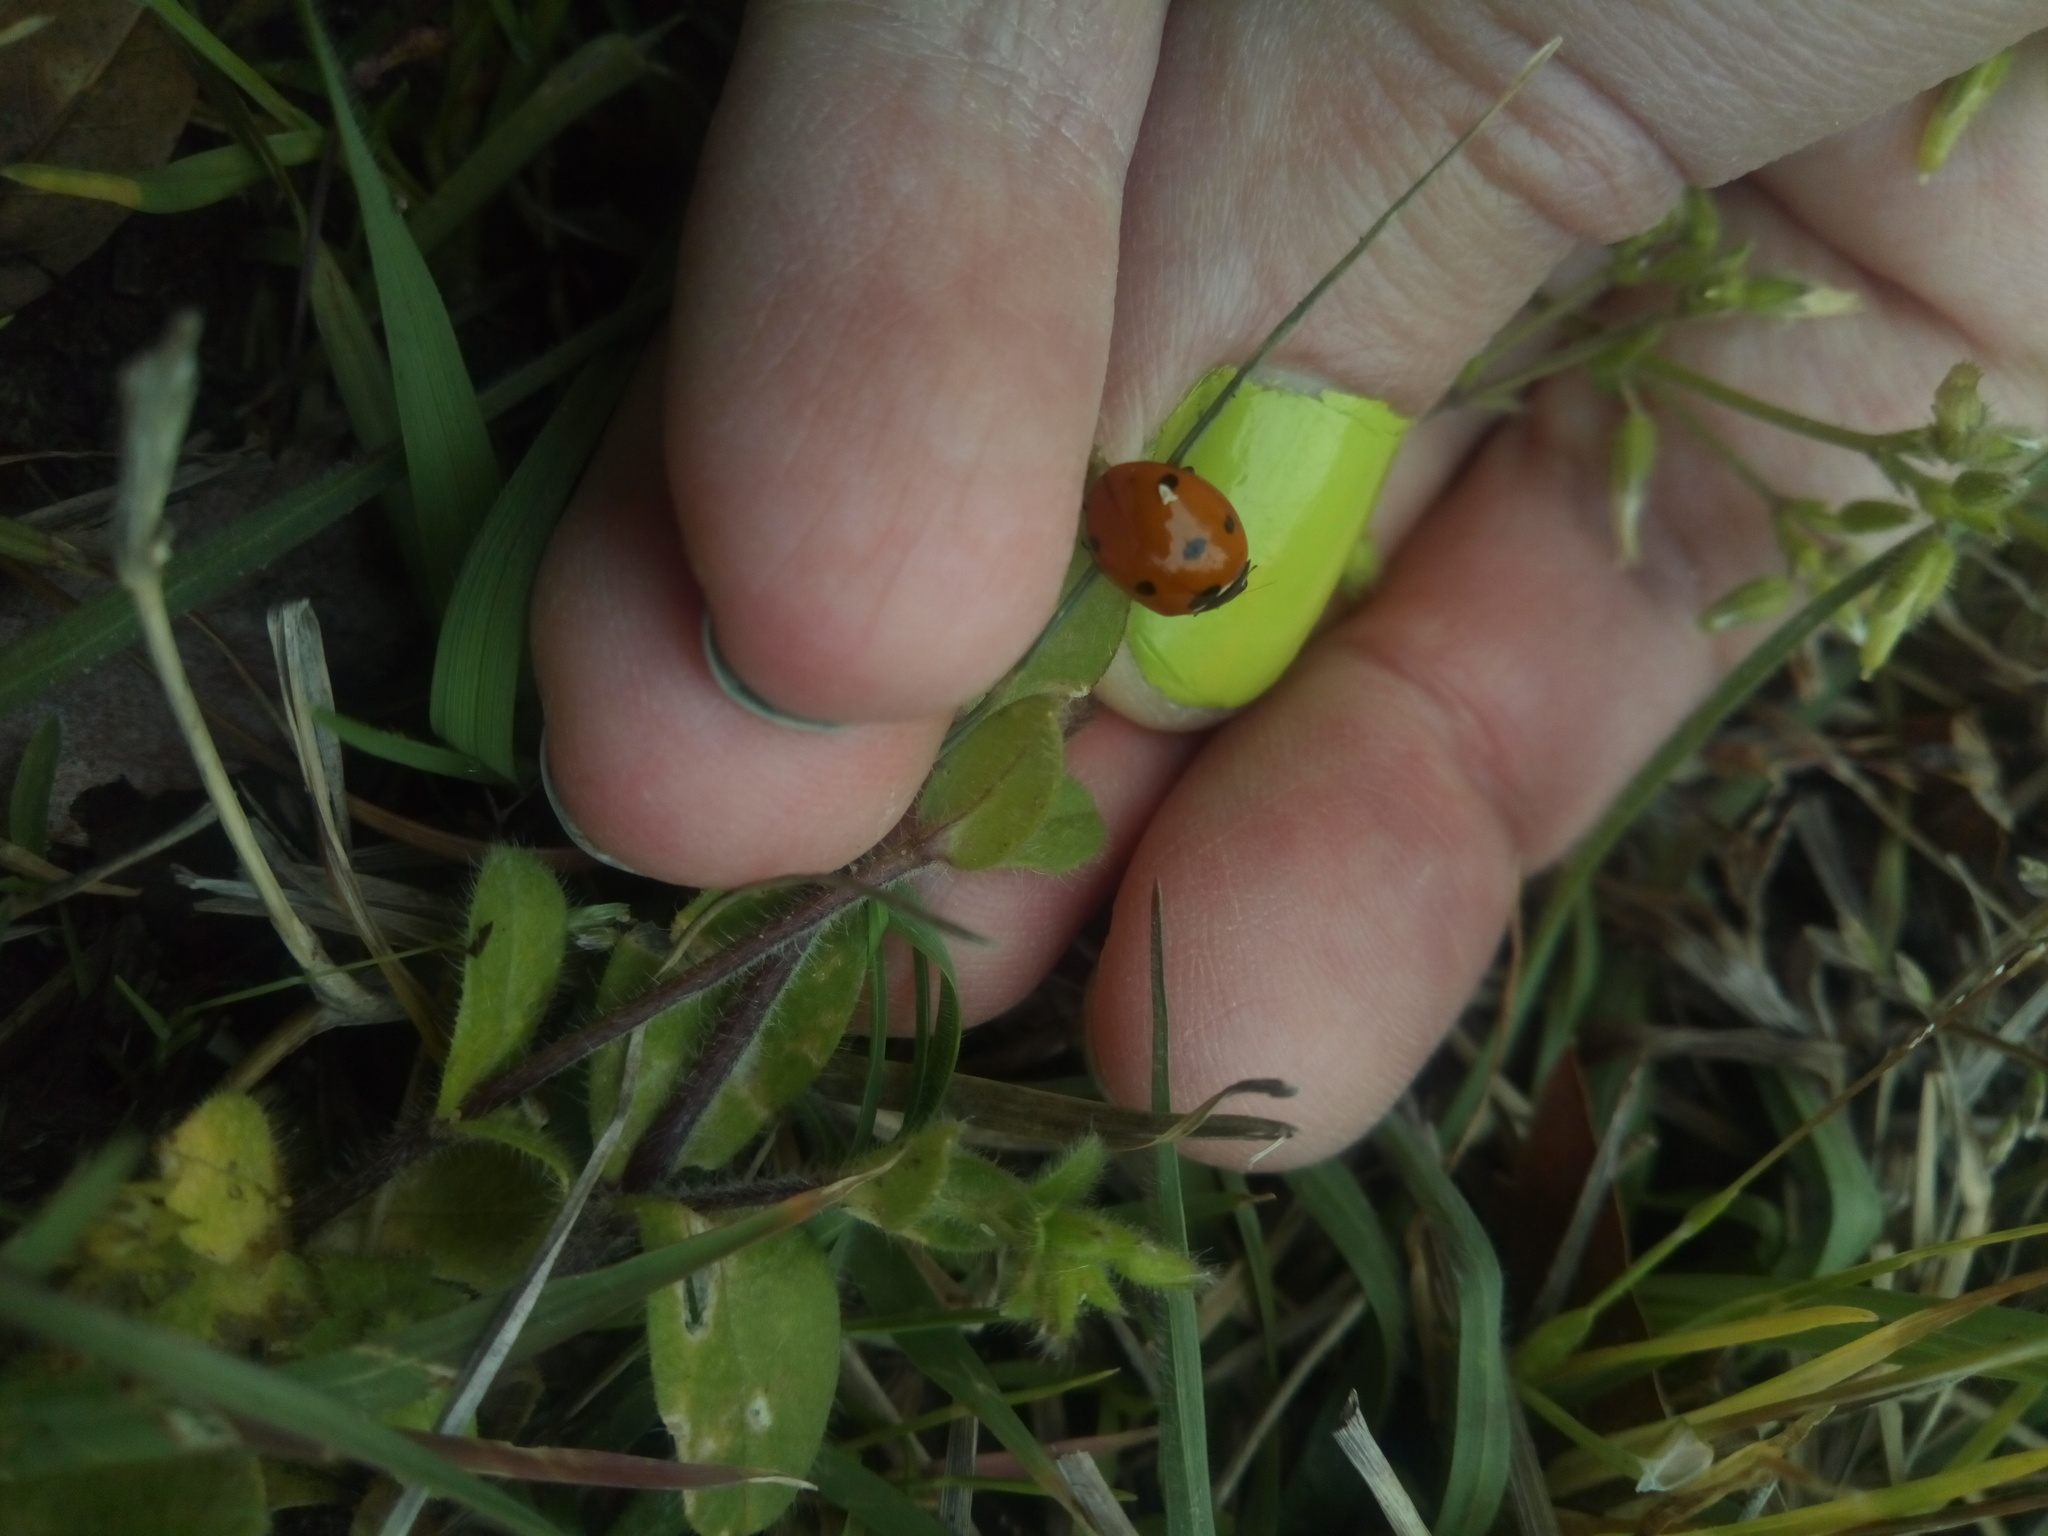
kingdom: Animalia
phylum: Arthropoda
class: Insecta
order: Coleoptera
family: Coccinellidae
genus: Coccinella
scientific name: Coccinella septempunctata
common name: Sevenspotted lady beetle
